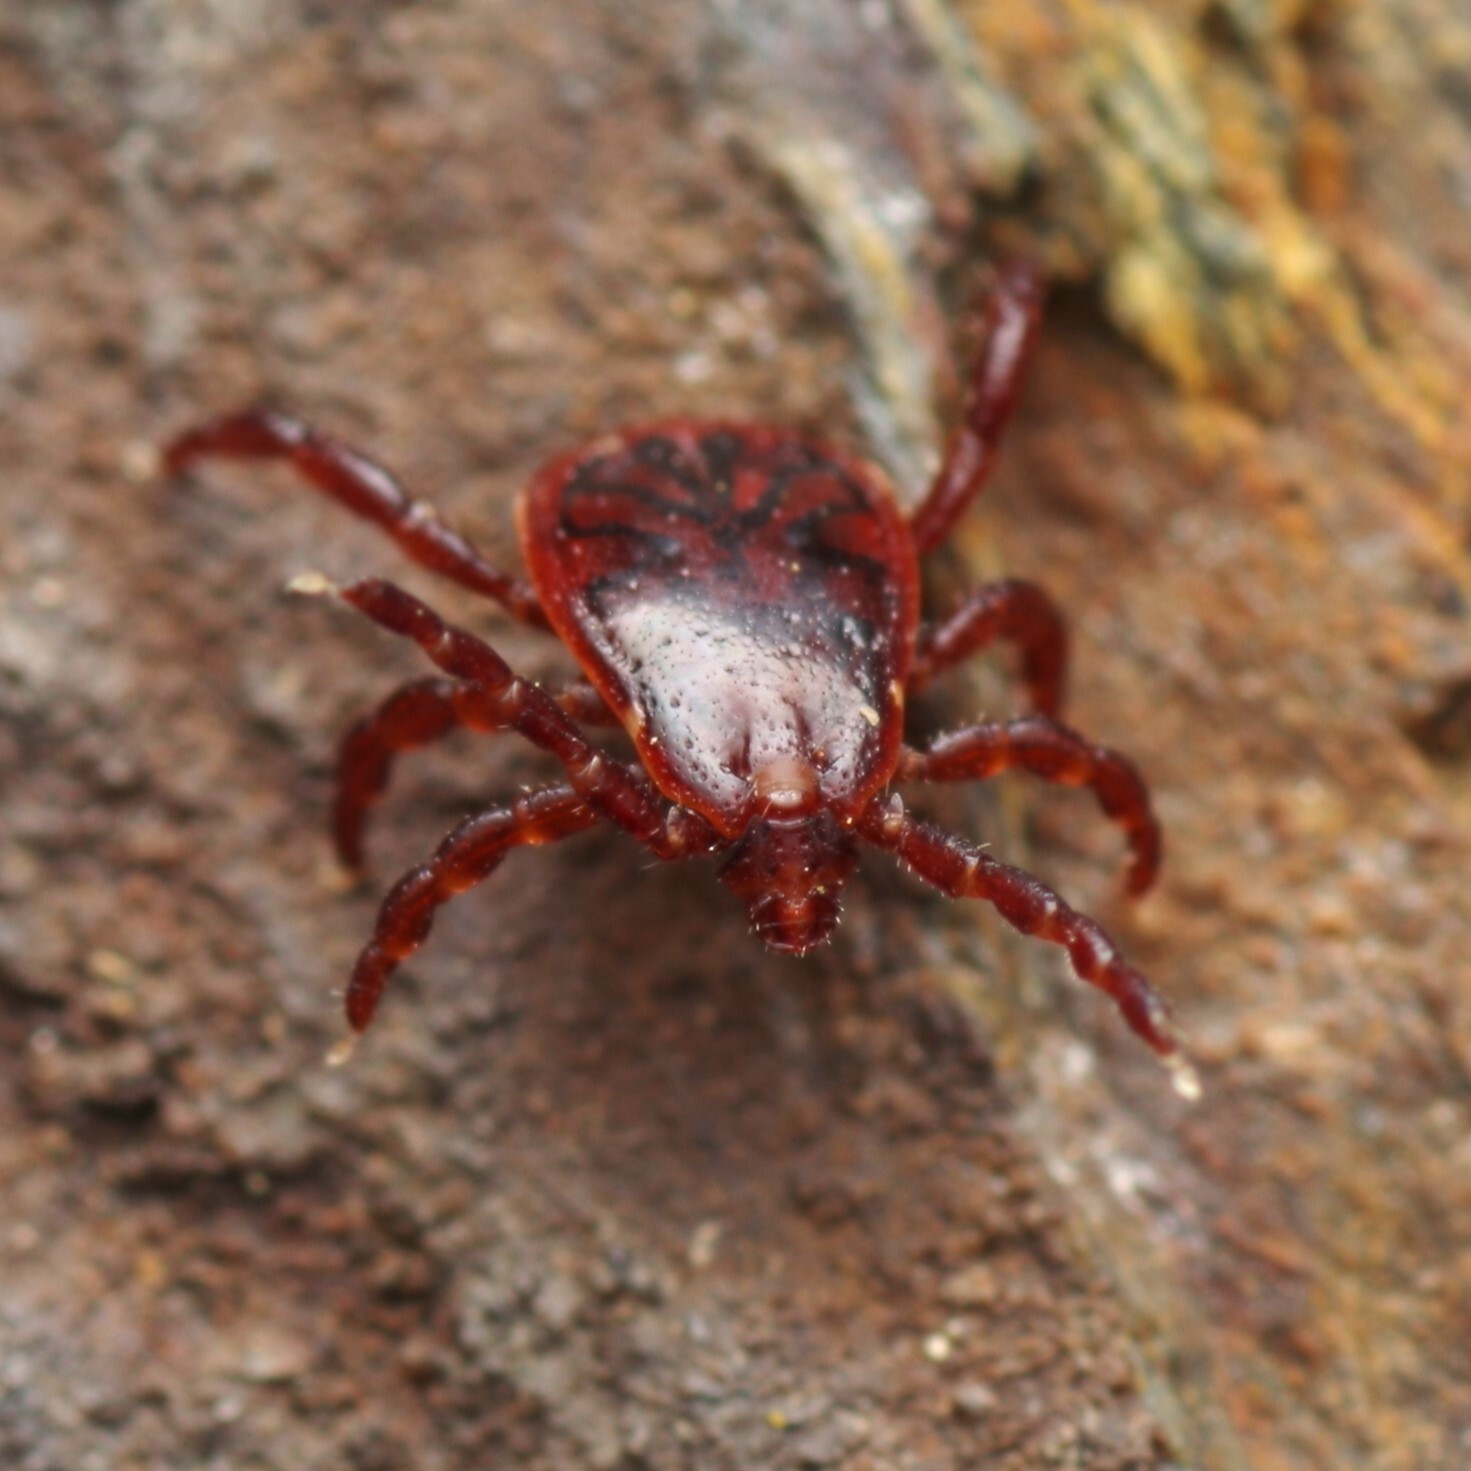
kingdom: Animalia
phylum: Arthropoda
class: Arachnida
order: Ixodida
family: Ixodidae
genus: Rhipicephalus
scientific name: Rhipicephalus sanguineus
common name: Brown dog tick
